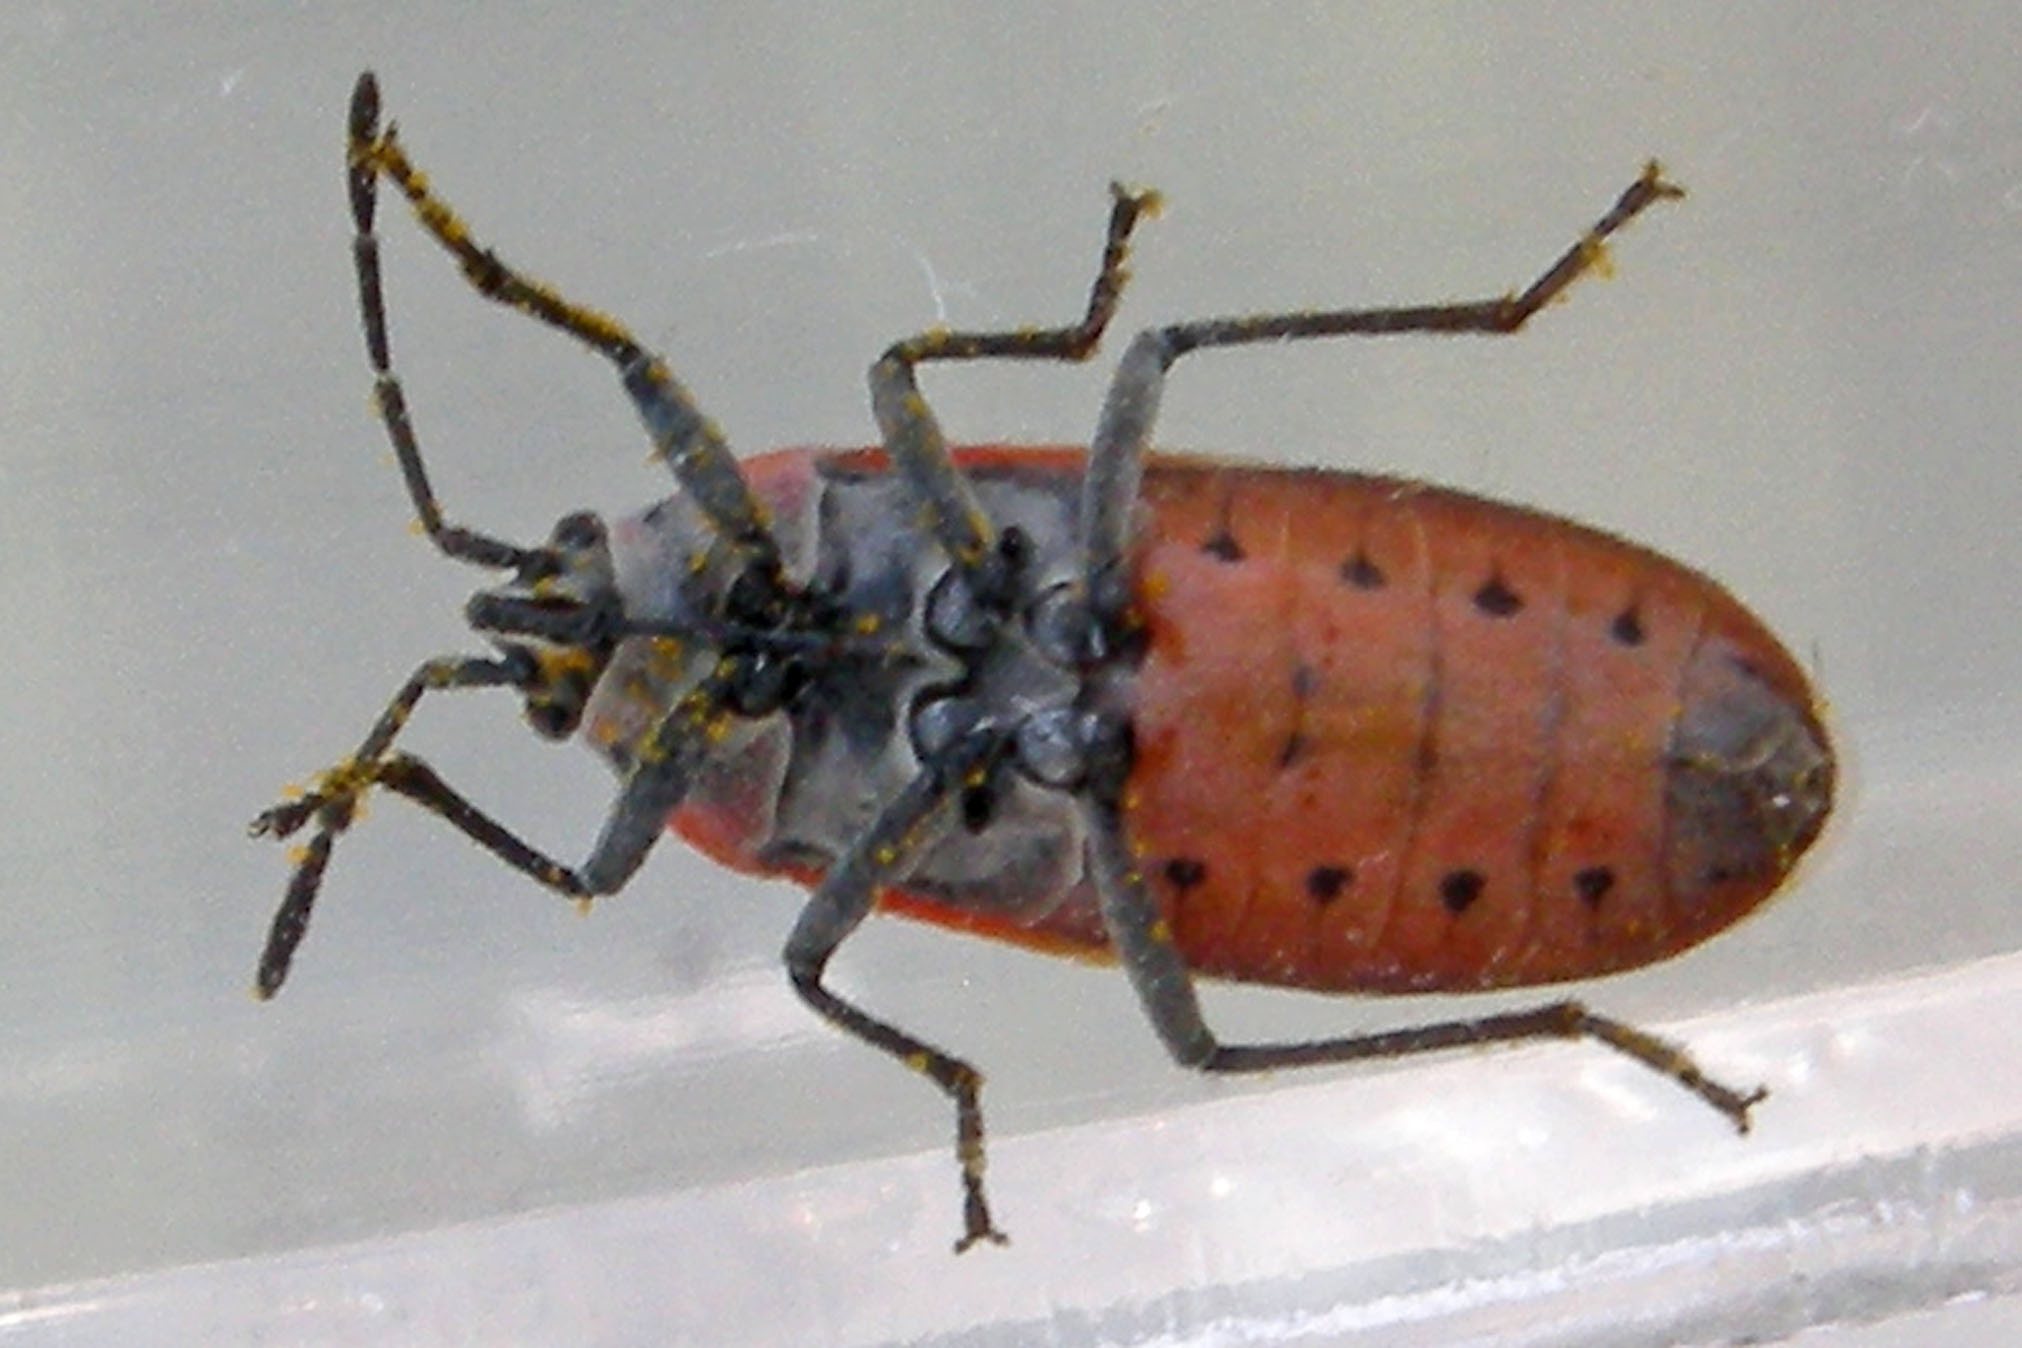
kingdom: Animalia
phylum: Arthropoda
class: Insecta
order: Hemiptera
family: Lygaeidae
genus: Neacoryphus
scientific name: Neacoryphus bicrucis
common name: Lygaeid bug
